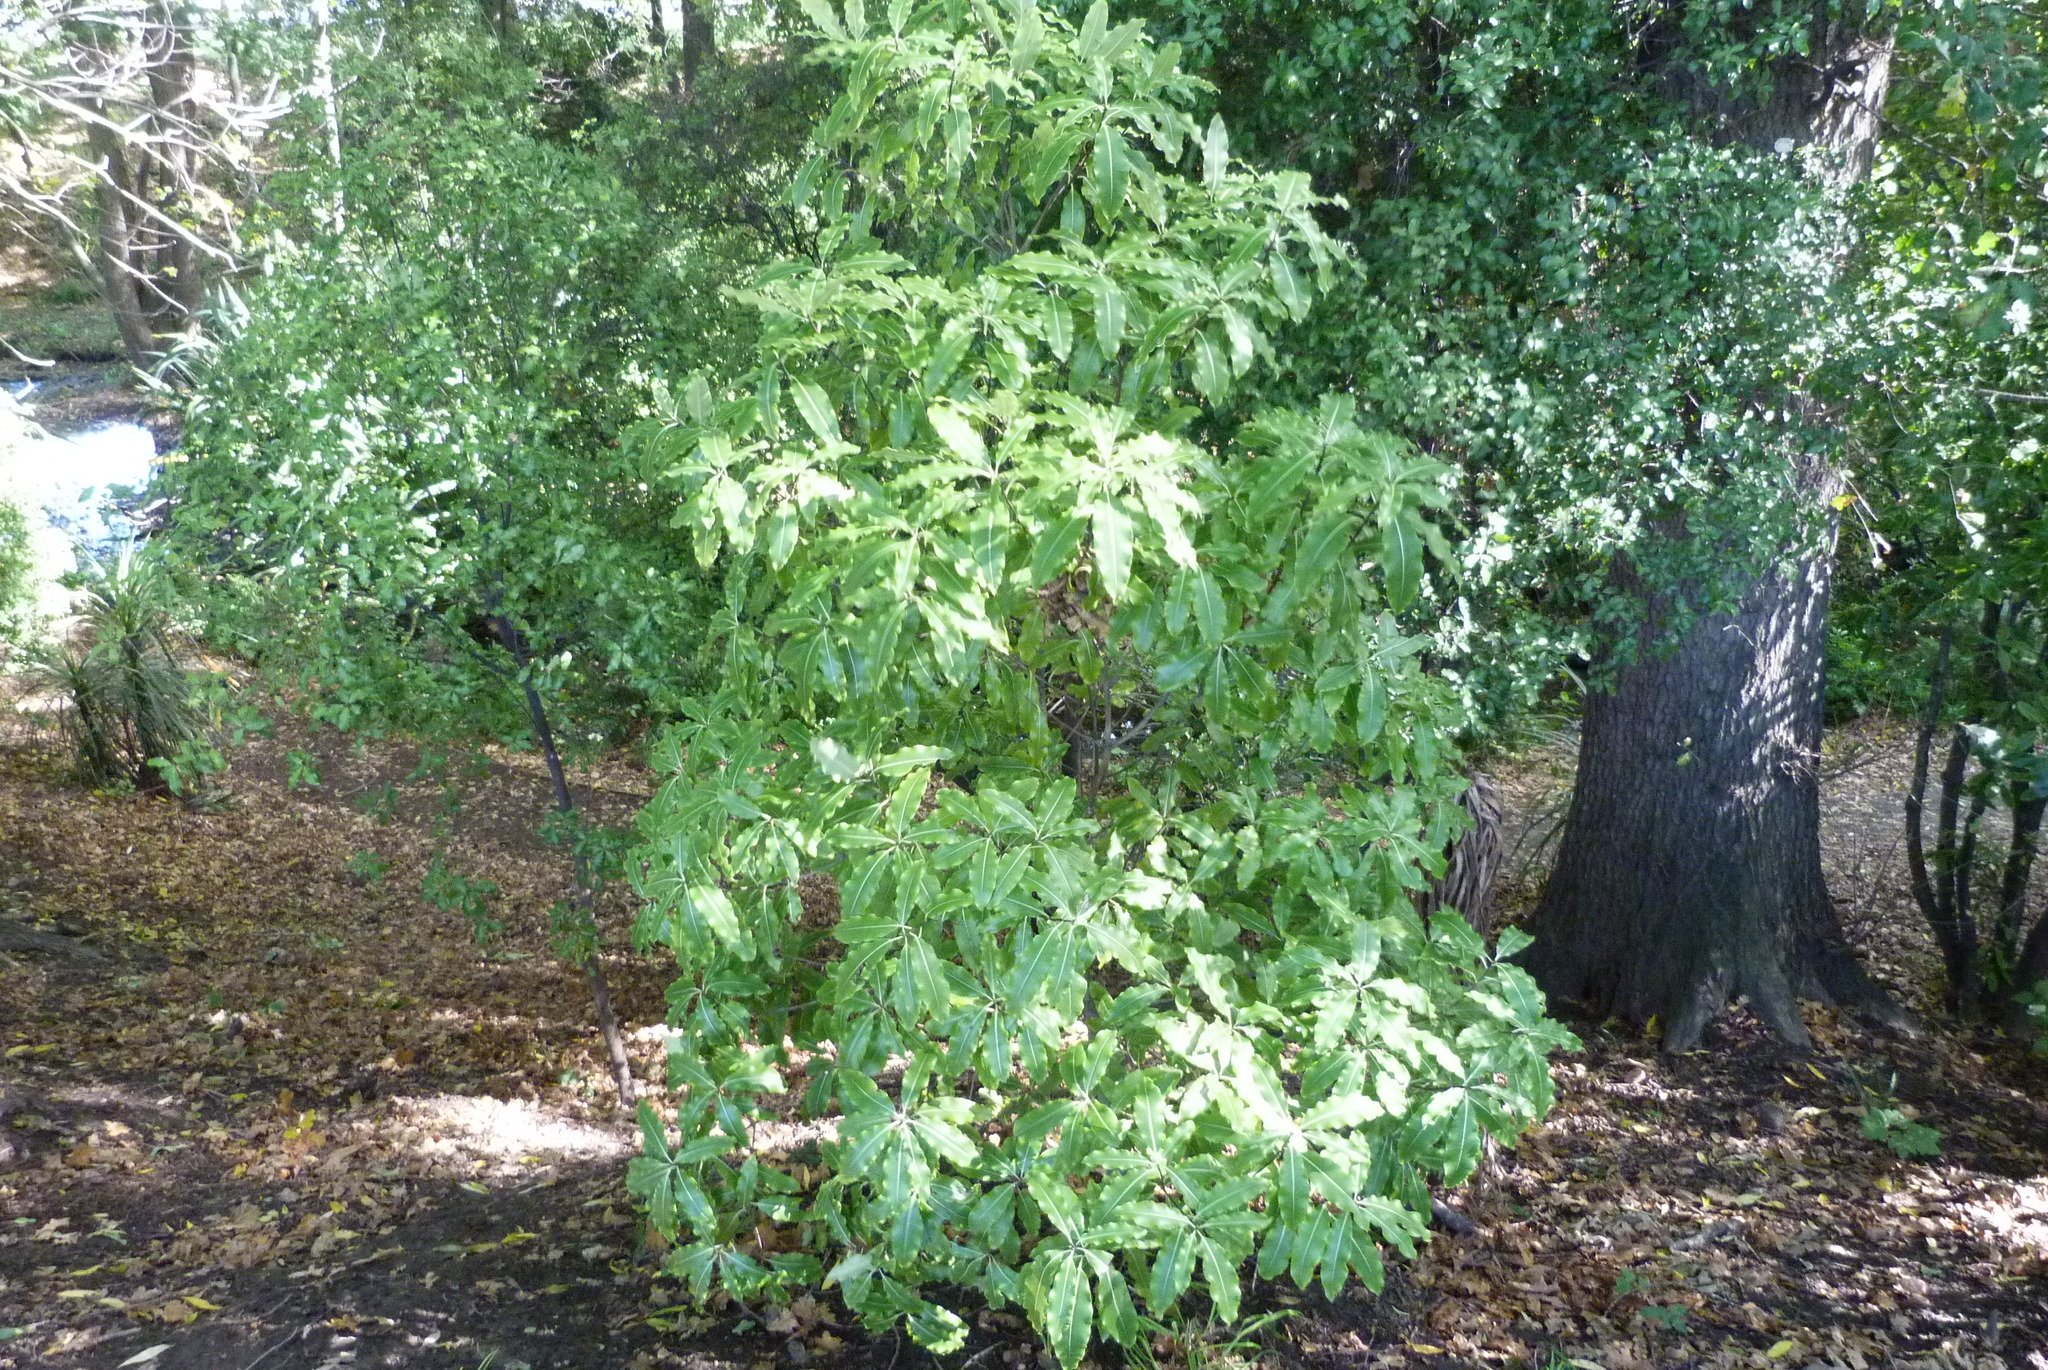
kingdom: Plantae
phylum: Tracheophyta
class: Magnoliopsida
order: Apiales
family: Pittosporaceae
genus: Pittosporum
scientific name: Pittosporum eugenioides
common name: Lemonwood
